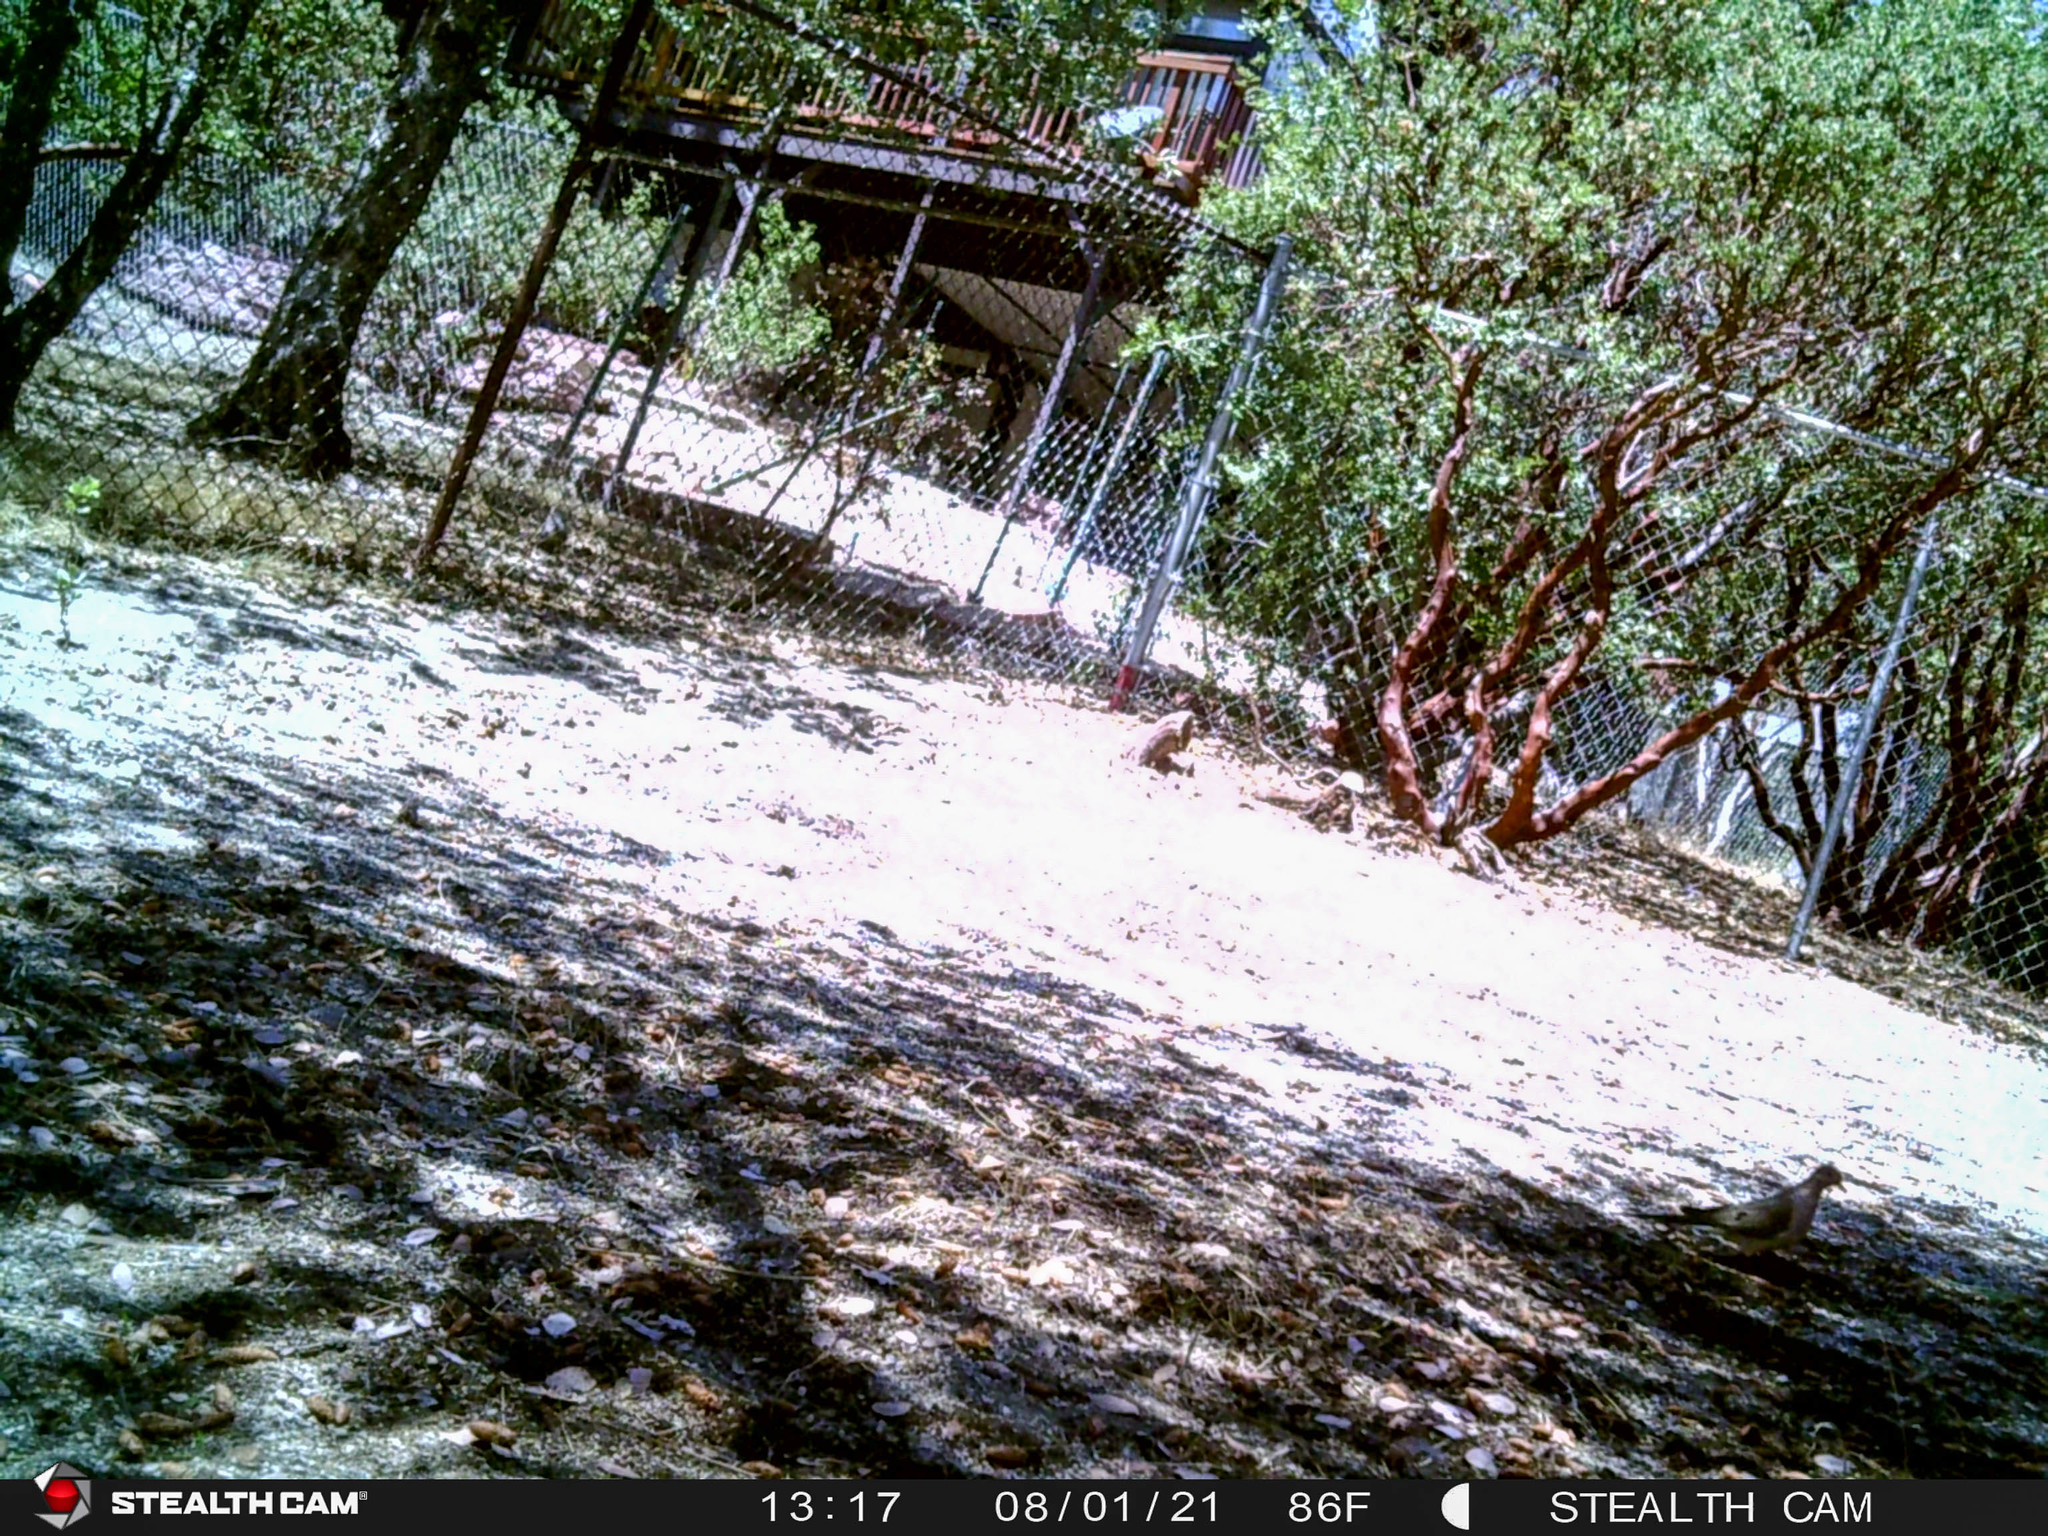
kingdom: Animalia
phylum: Chordata
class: Aves
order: Columbiformes
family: Columbidae
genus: Zenaida
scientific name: Zenaida macroura
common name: Mourning dove
